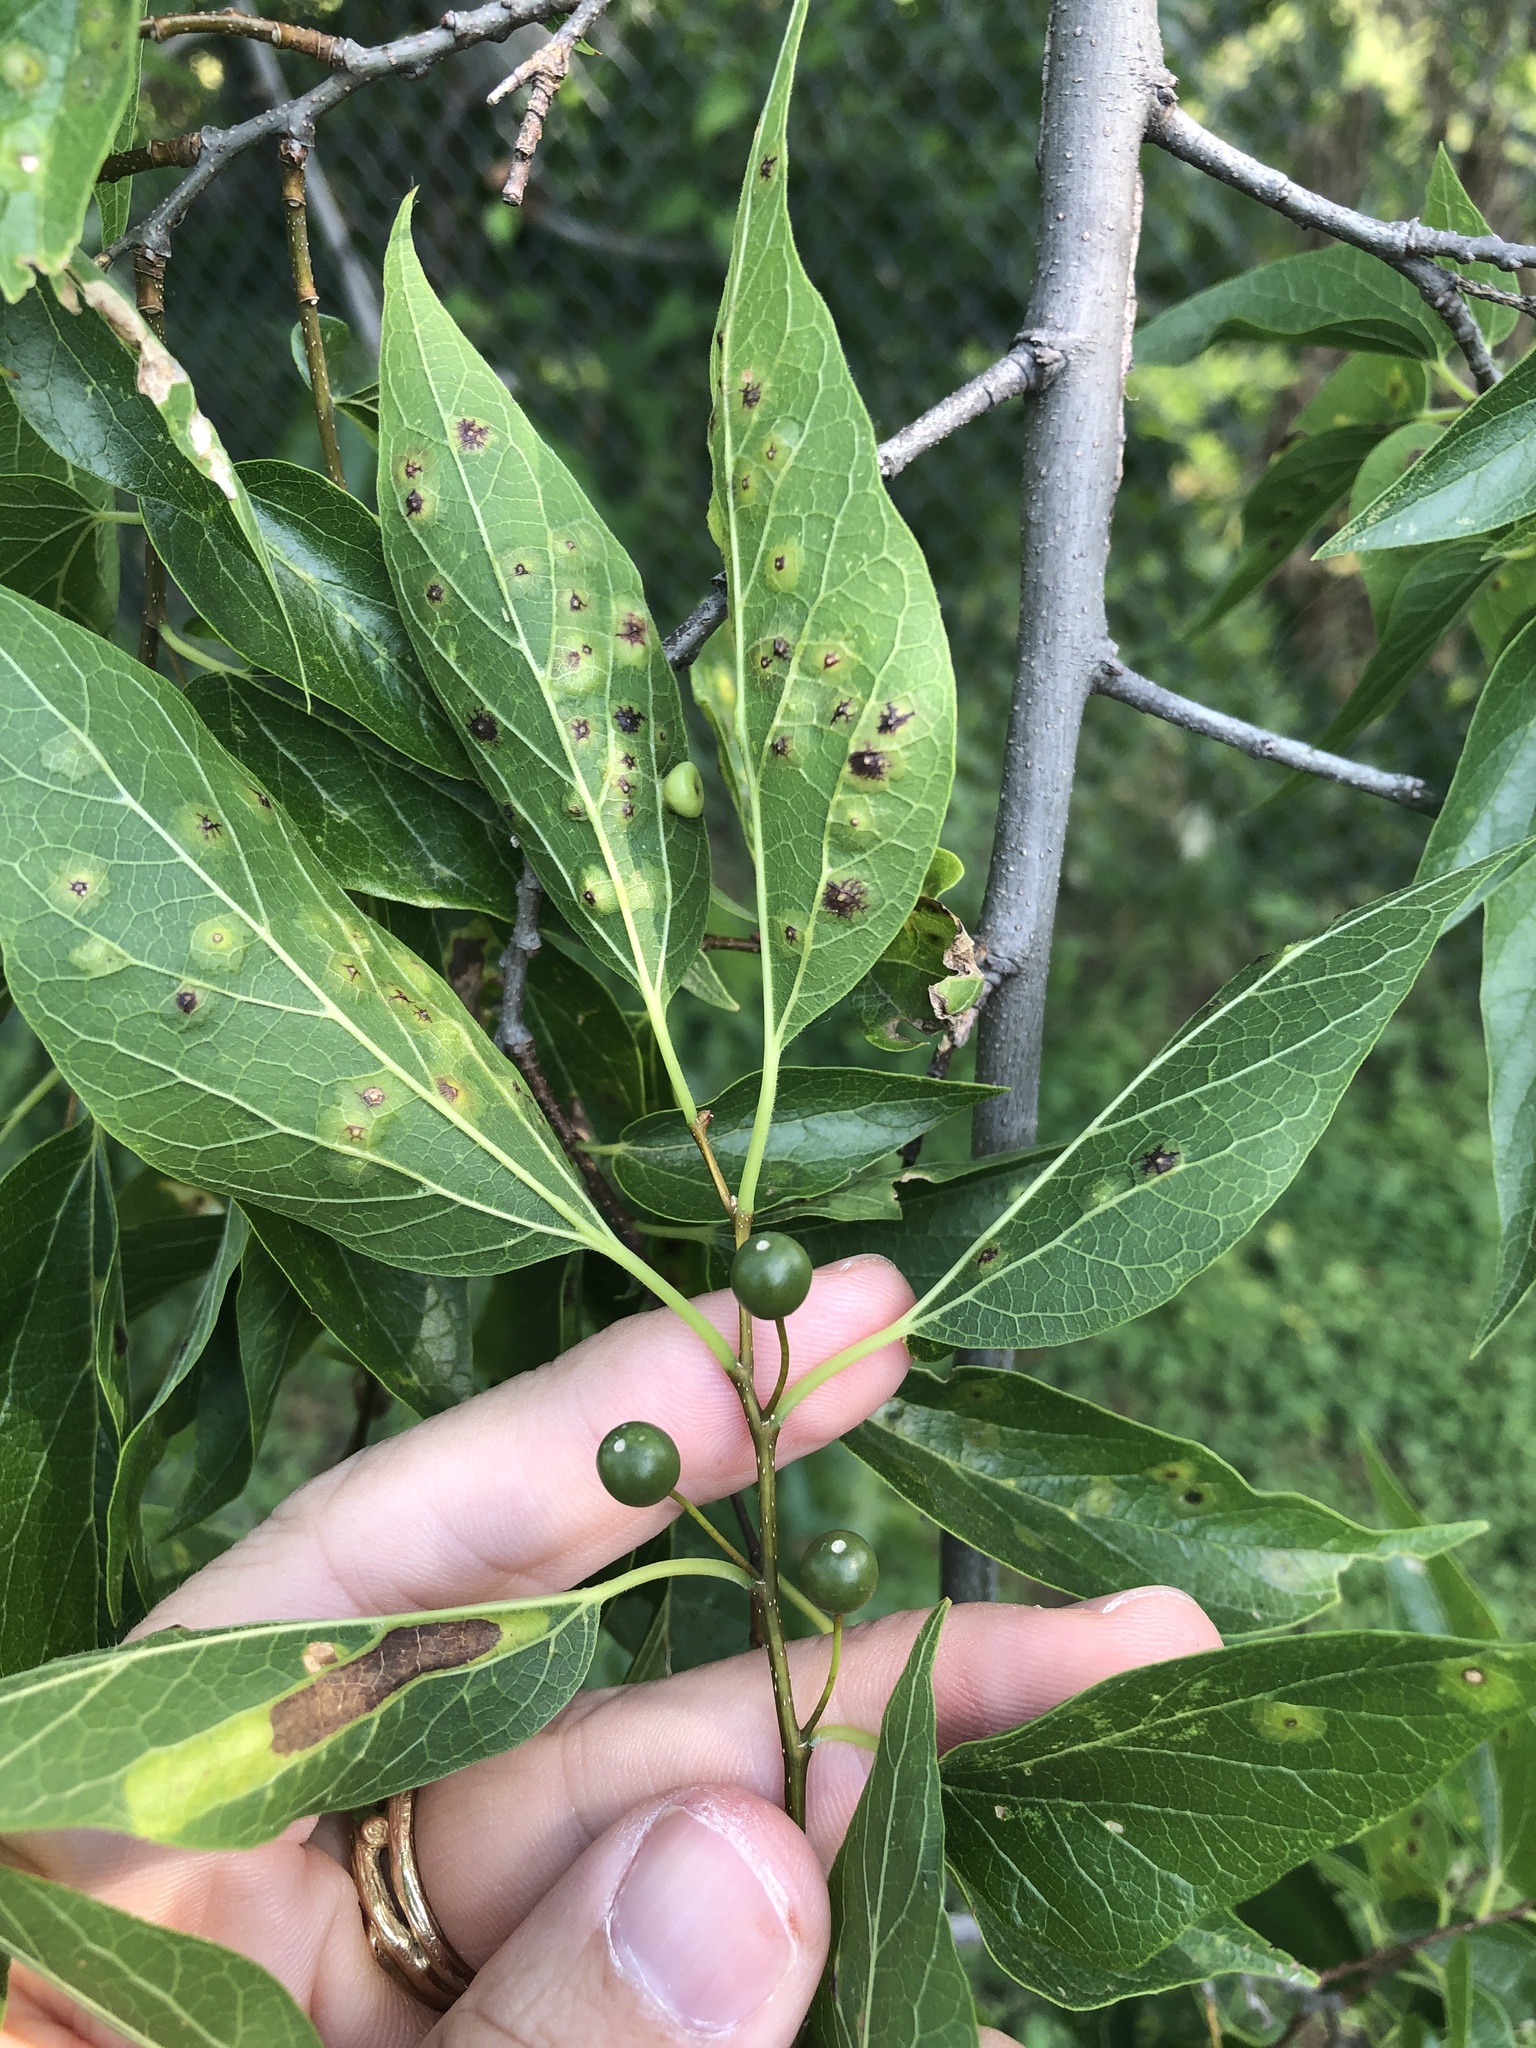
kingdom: Plantae
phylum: Tracheophyta
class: Magnoliopsida
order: Rosales
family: Cannabaceae
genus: Celtis
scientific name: Celtis laevigata
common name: Sugarberry
